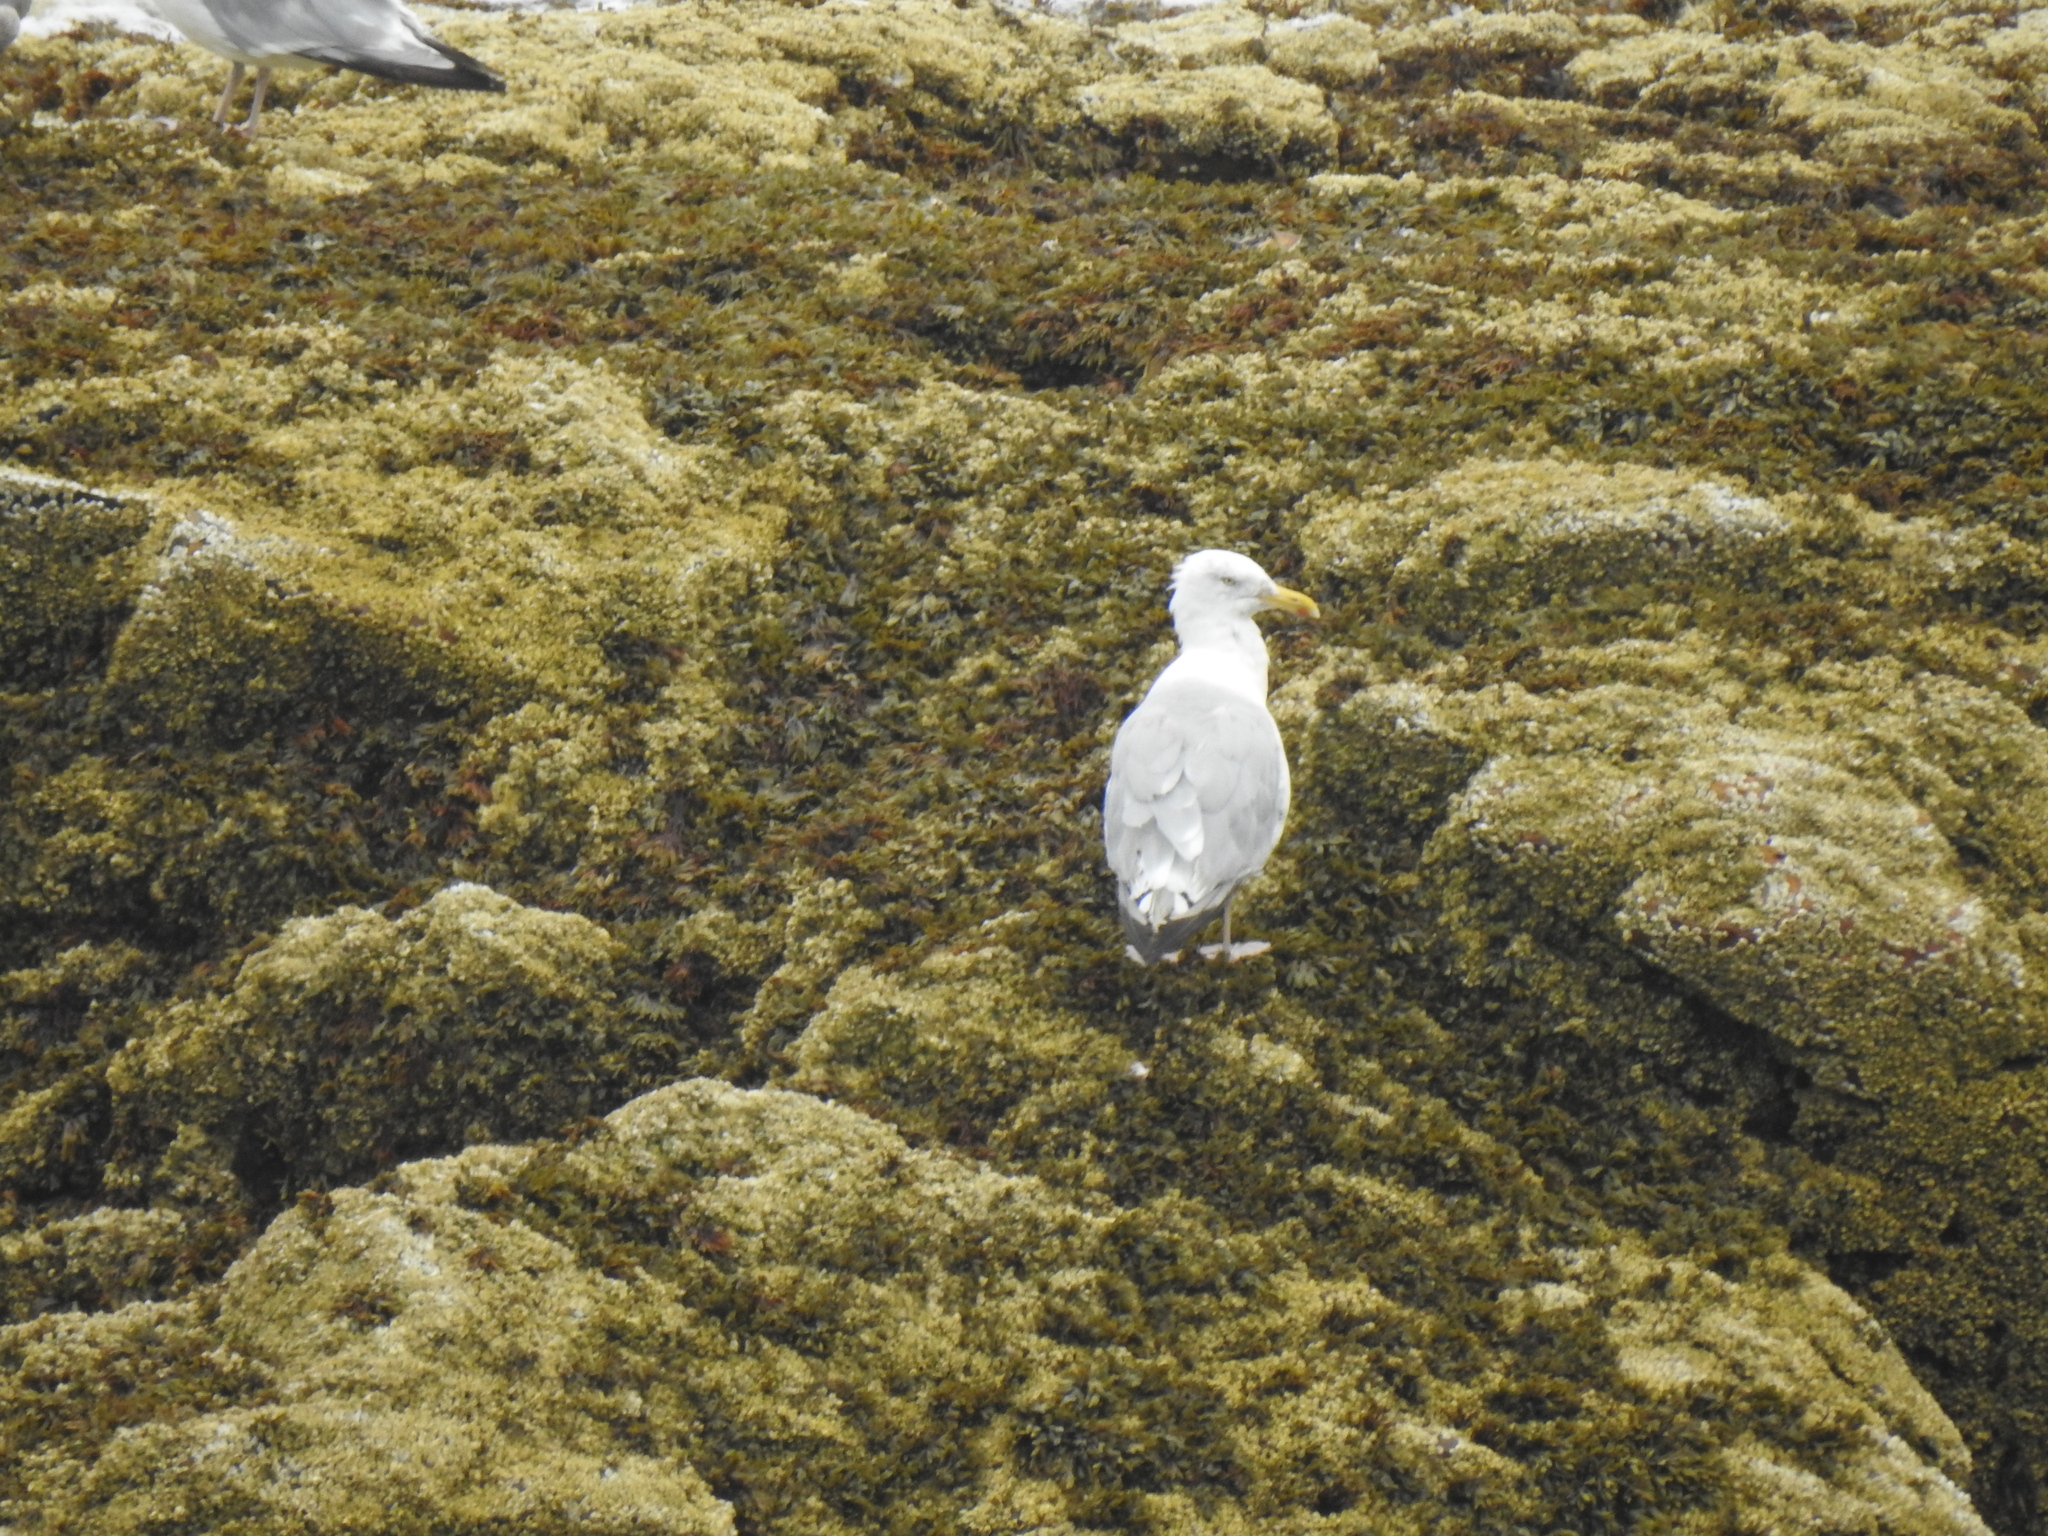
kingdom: Animalia
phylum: Chordata
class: Aves
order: Charadriiformes
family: Laridae
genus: Larus
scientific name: Larus argentatus
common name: Herring gull
